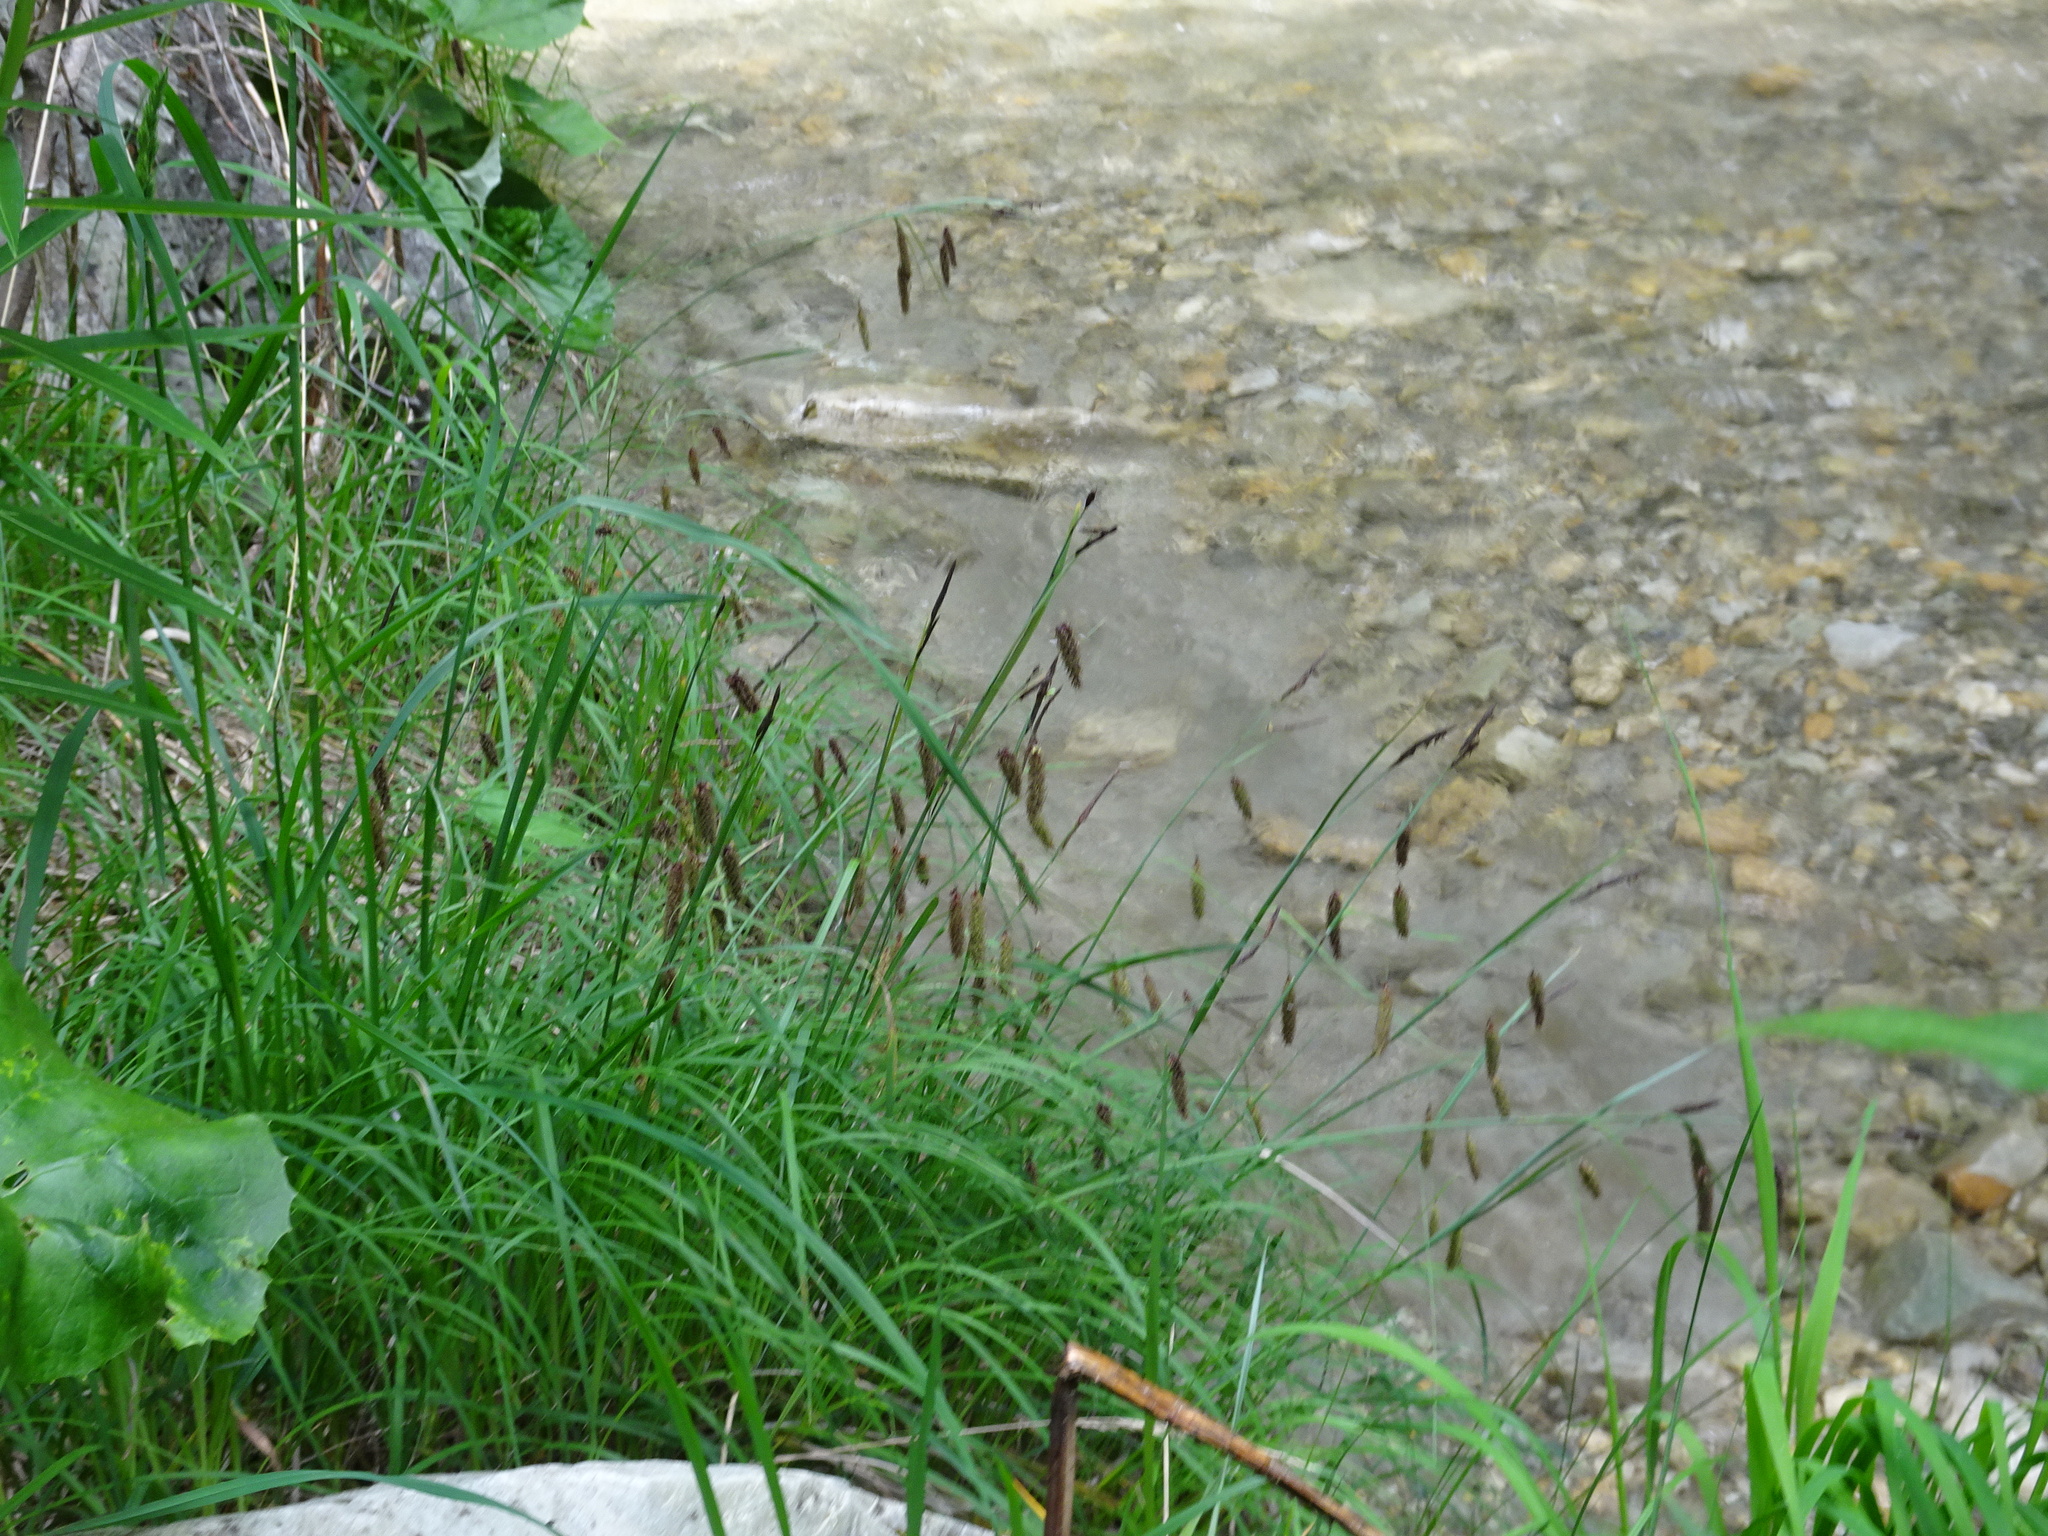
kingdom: Plantae
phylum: Tracheophyta
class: Liliopsida
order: Poales
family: Cyperaceae
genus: Carex
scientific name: Carex flacca
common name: Glaucous sedge
